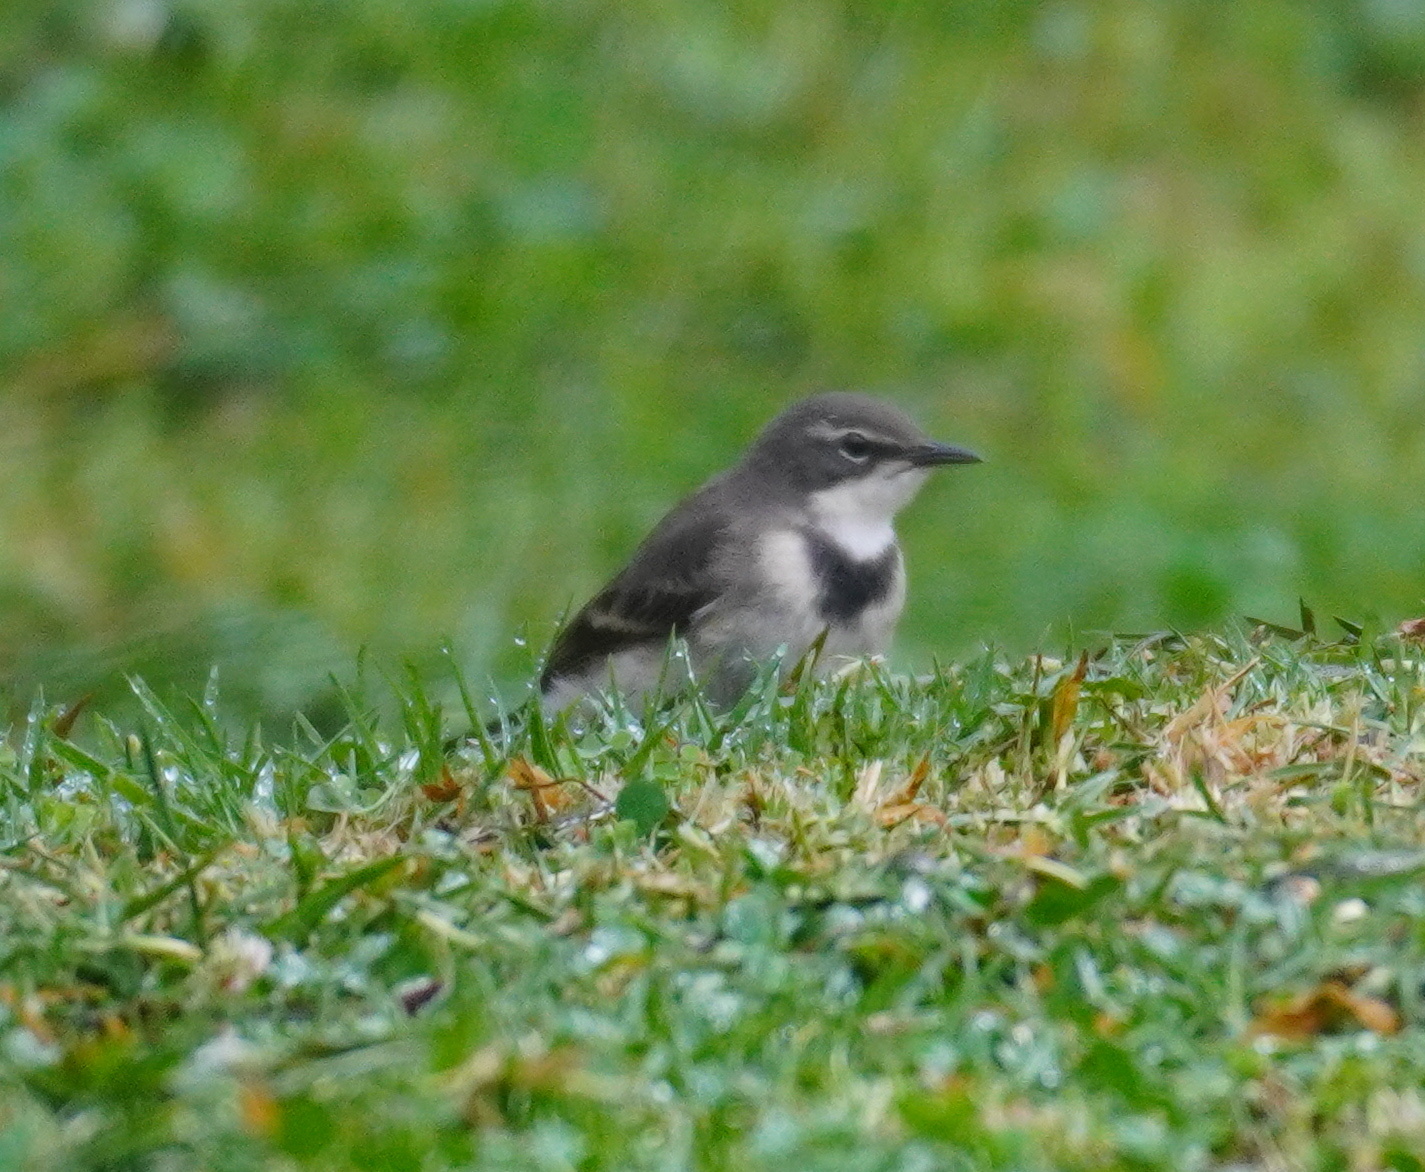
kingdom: Animalia
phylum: Chordata
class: Aves
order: Passeriformes
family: Motacillidae
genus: Motacilla
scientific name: Motacilla capensis
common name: Cape wagtail
